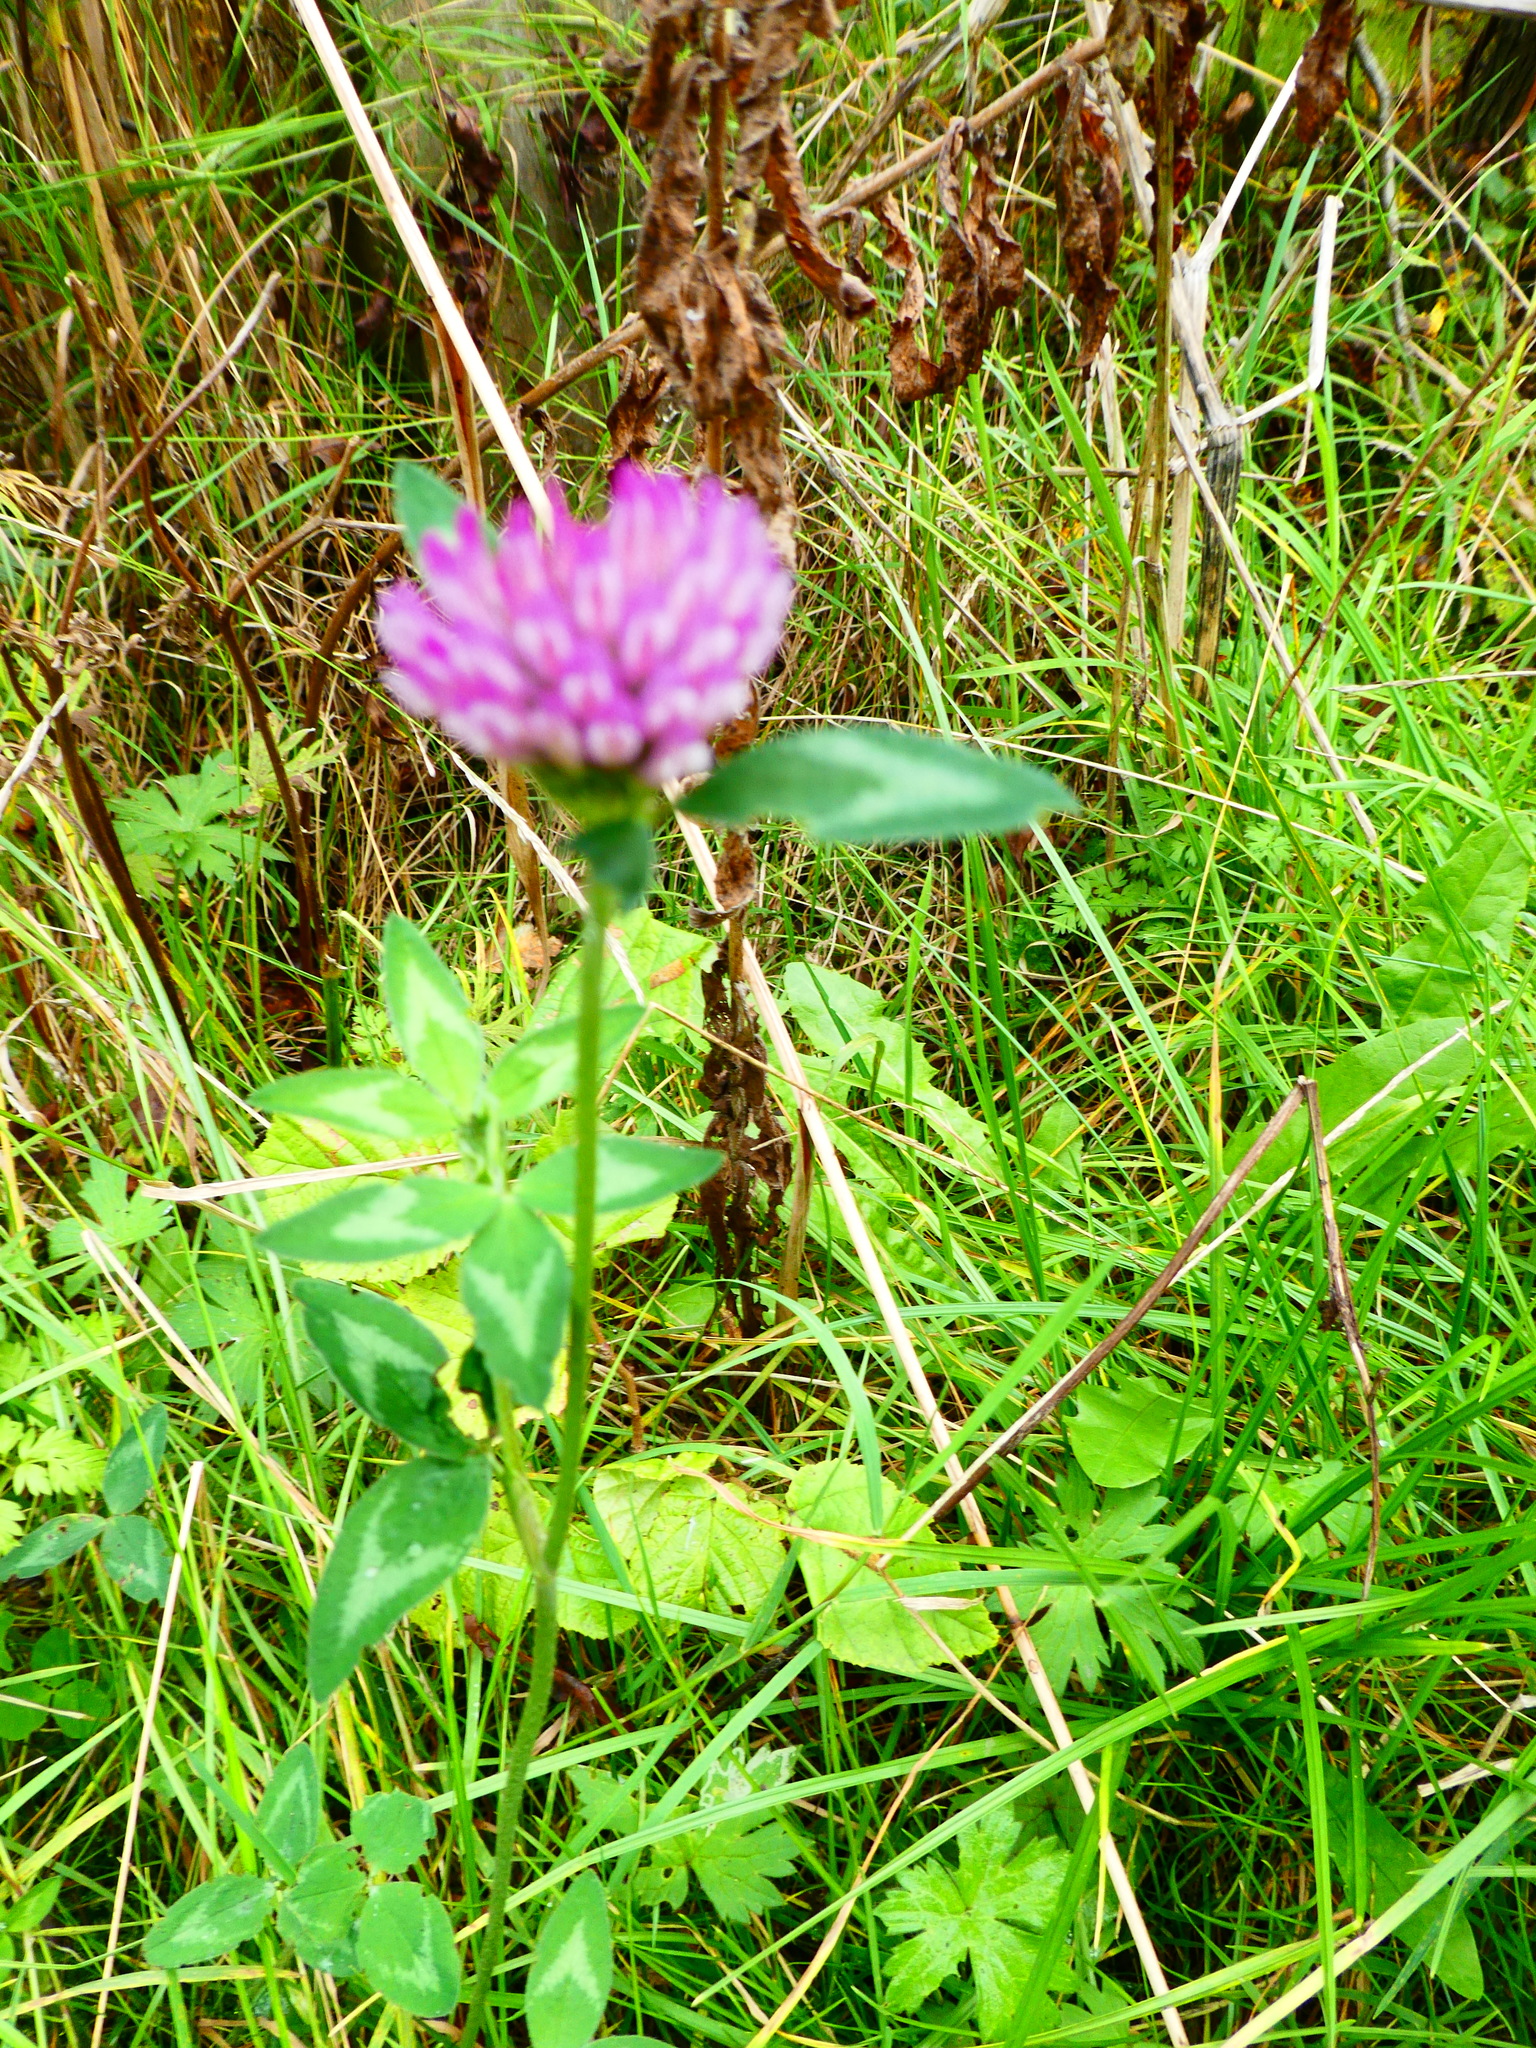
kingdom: Plantae
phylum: Tracheophyta
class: Magnoliopsida
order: Fabales
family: Fabaceae
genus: Trifolium
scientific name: Trifolium pratense
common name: Red clover
